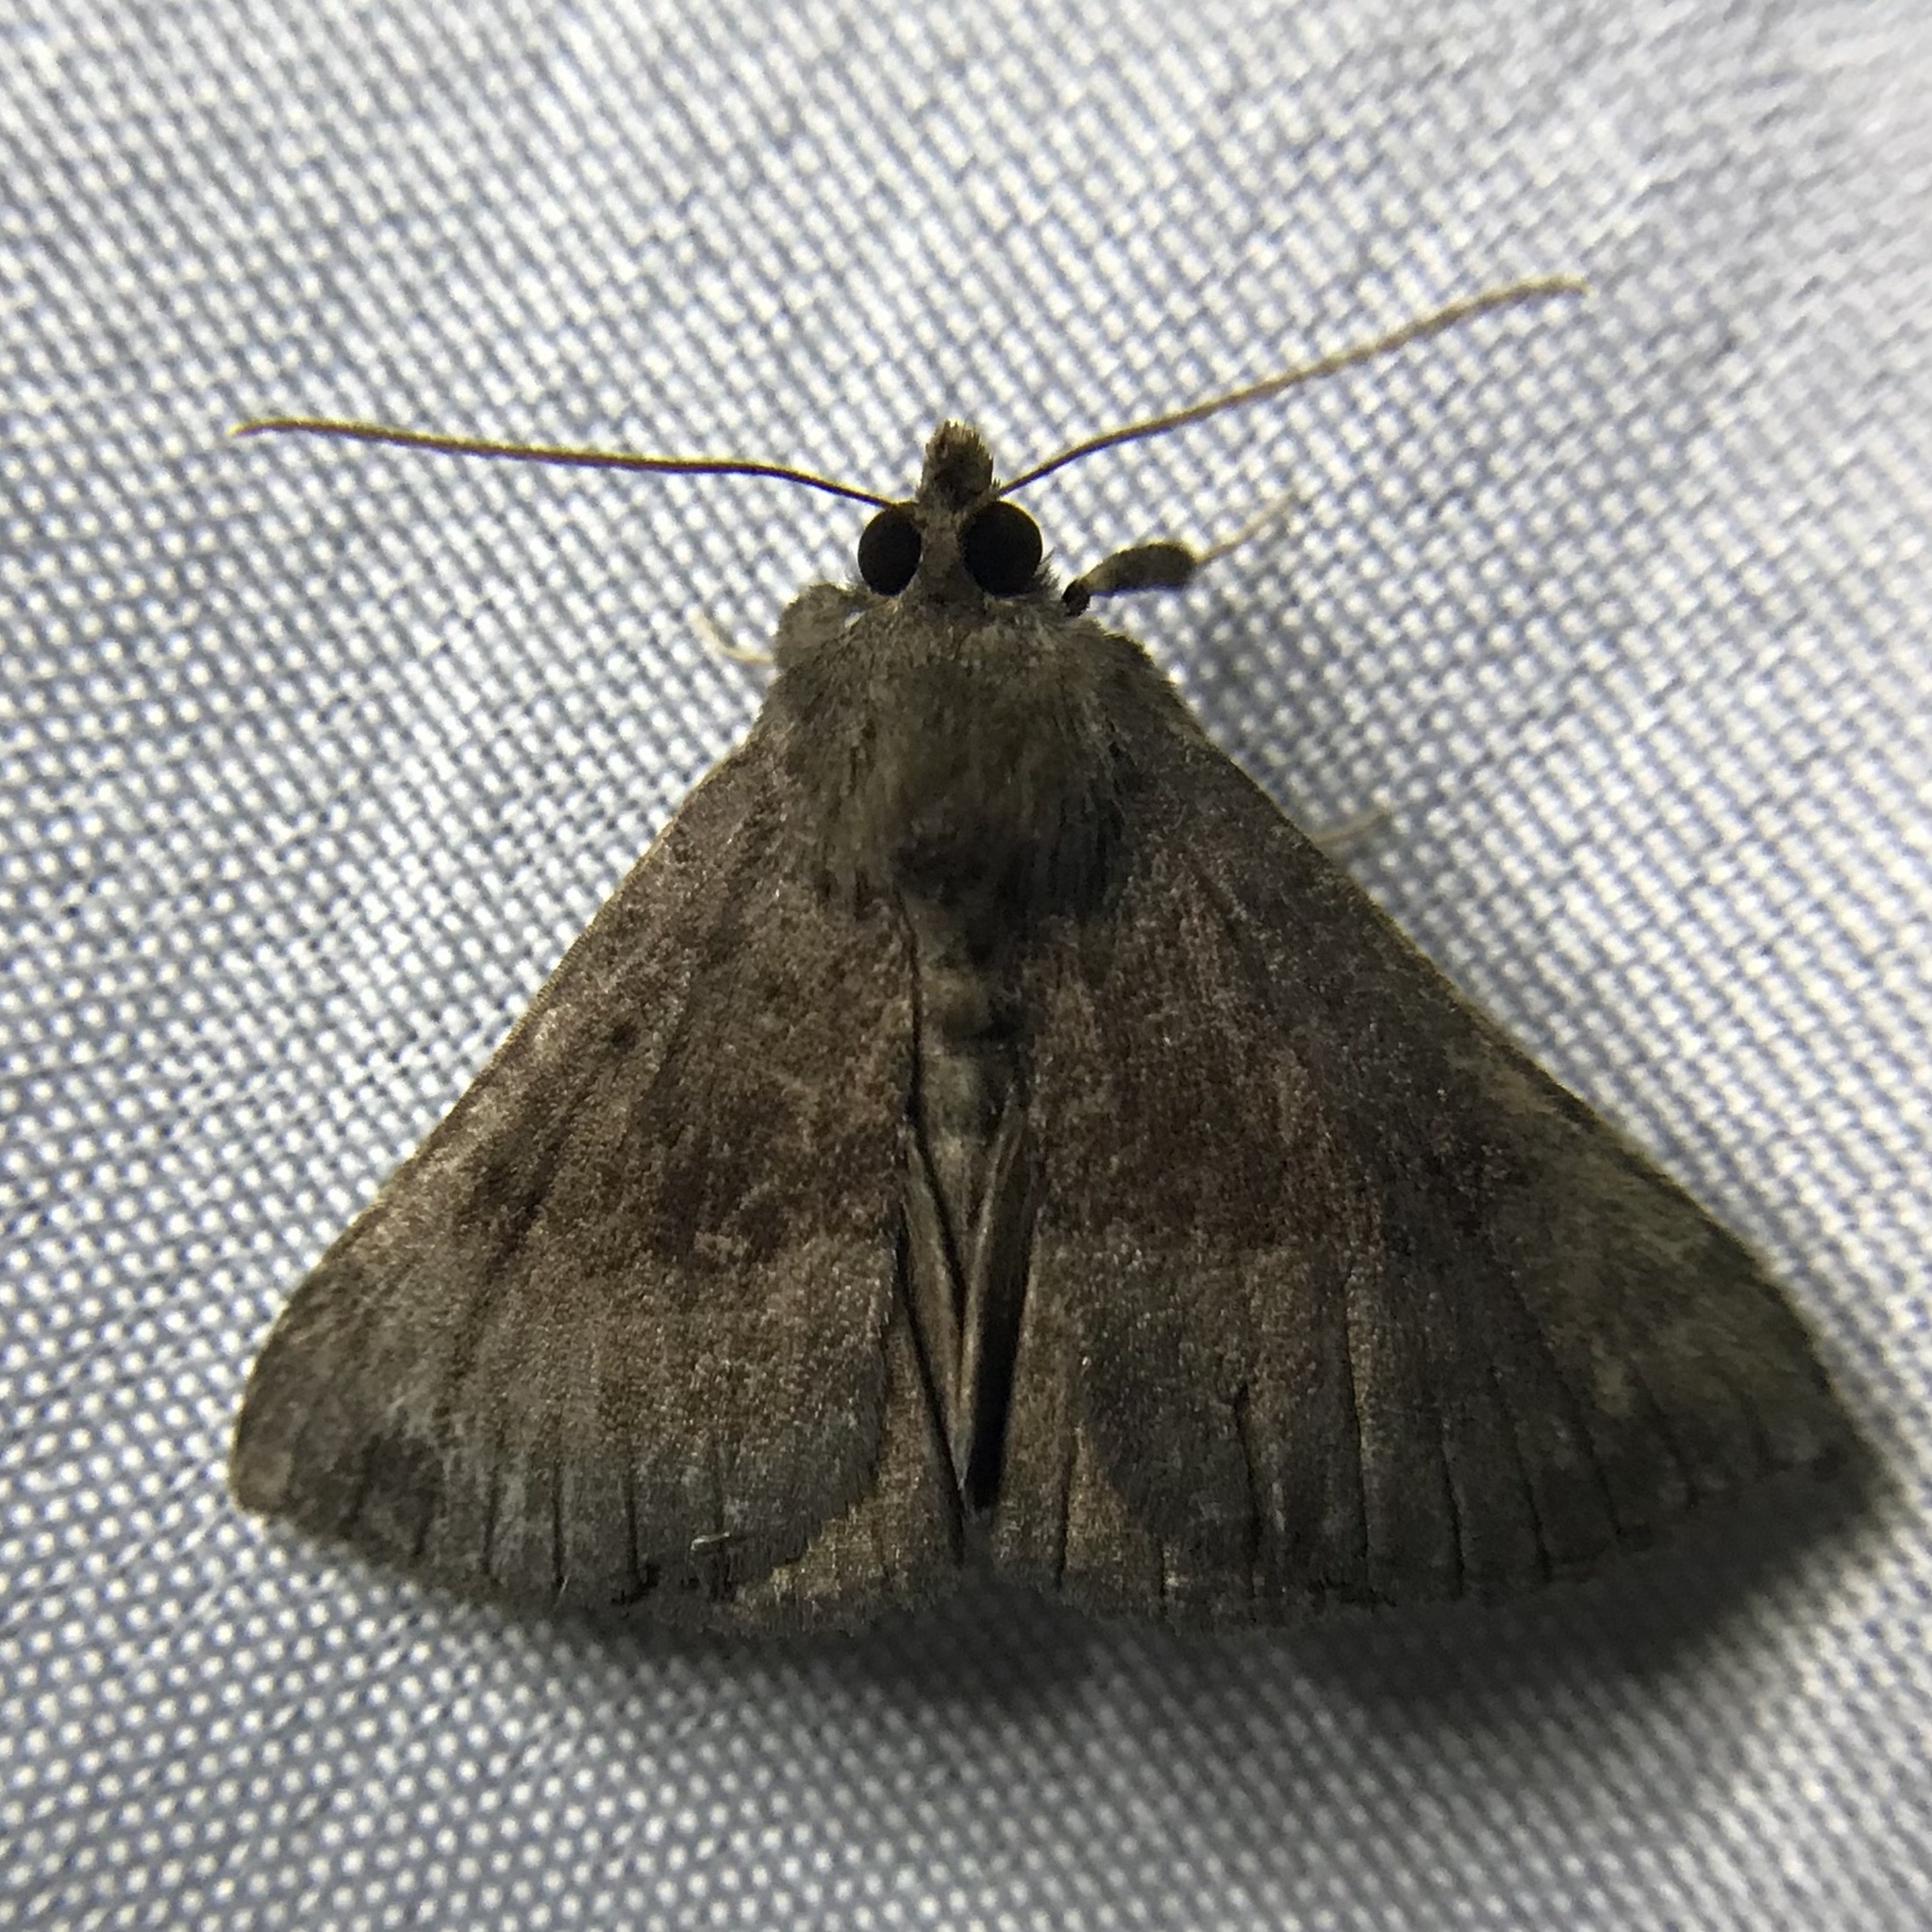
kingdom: Animalia
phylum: Arthropoda
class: Insecta
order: Lepidoptera
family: Erebidae
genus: Hypena
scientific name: Hypena madefactalis
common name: Gray-edged snout
